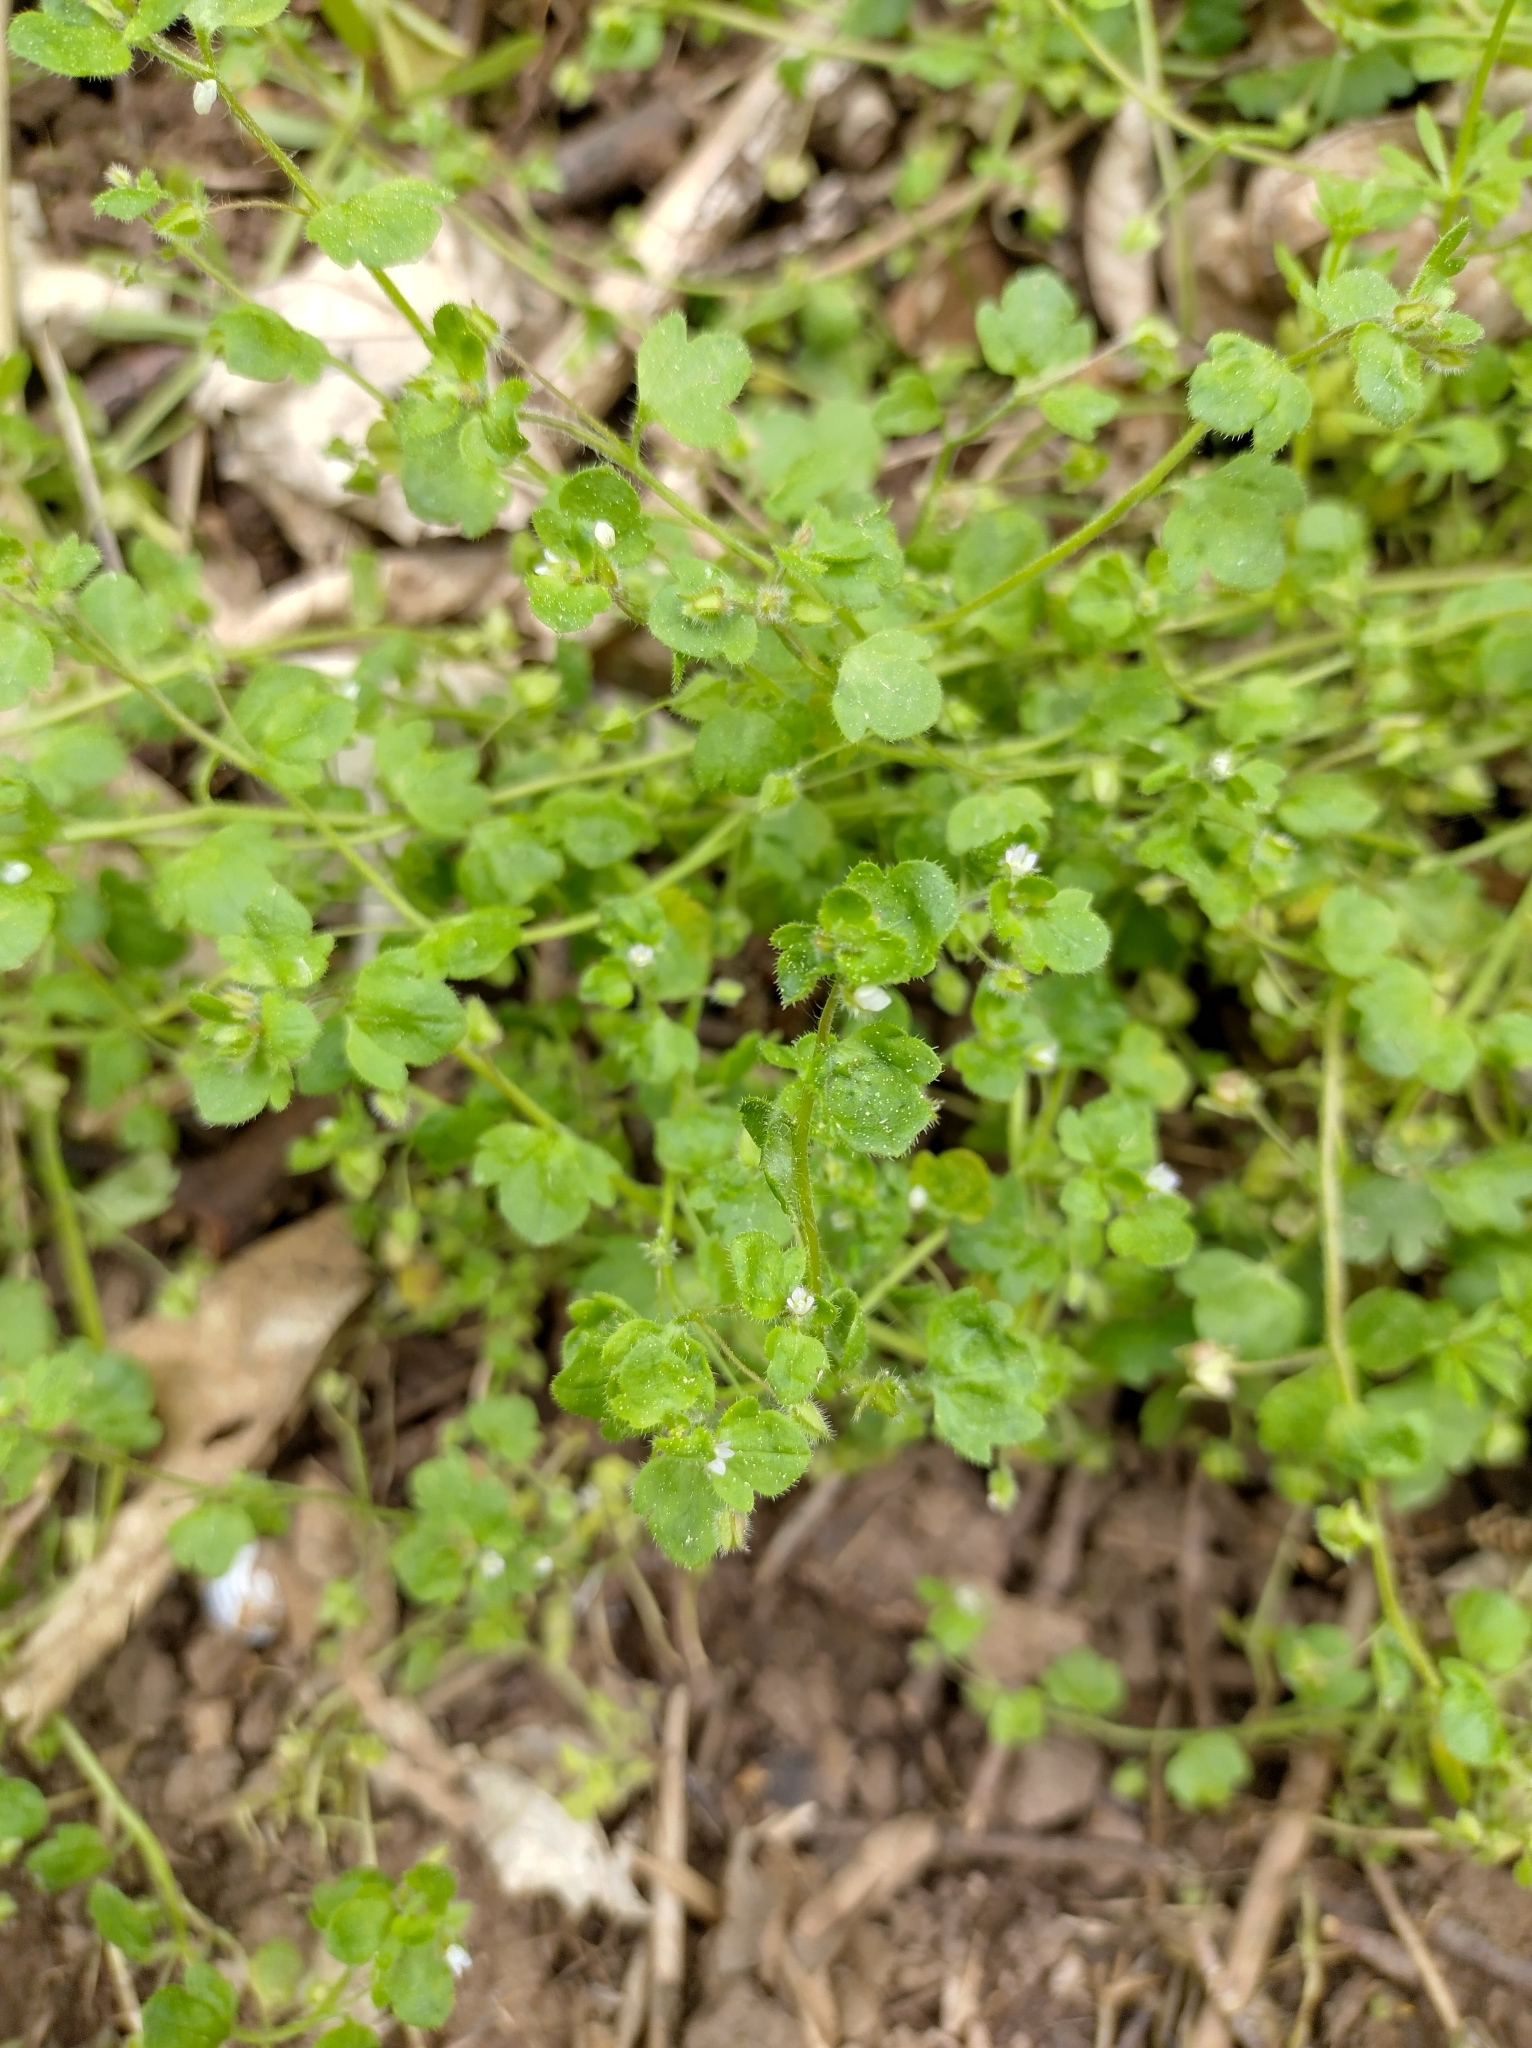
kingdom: Plantae
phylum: Tracheophyta
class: Magnoliopsida
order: Lamiales
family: Plantaginaceae
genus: Veronica
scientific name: Veronica sublobata
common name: False ivy-leaved speedwell
